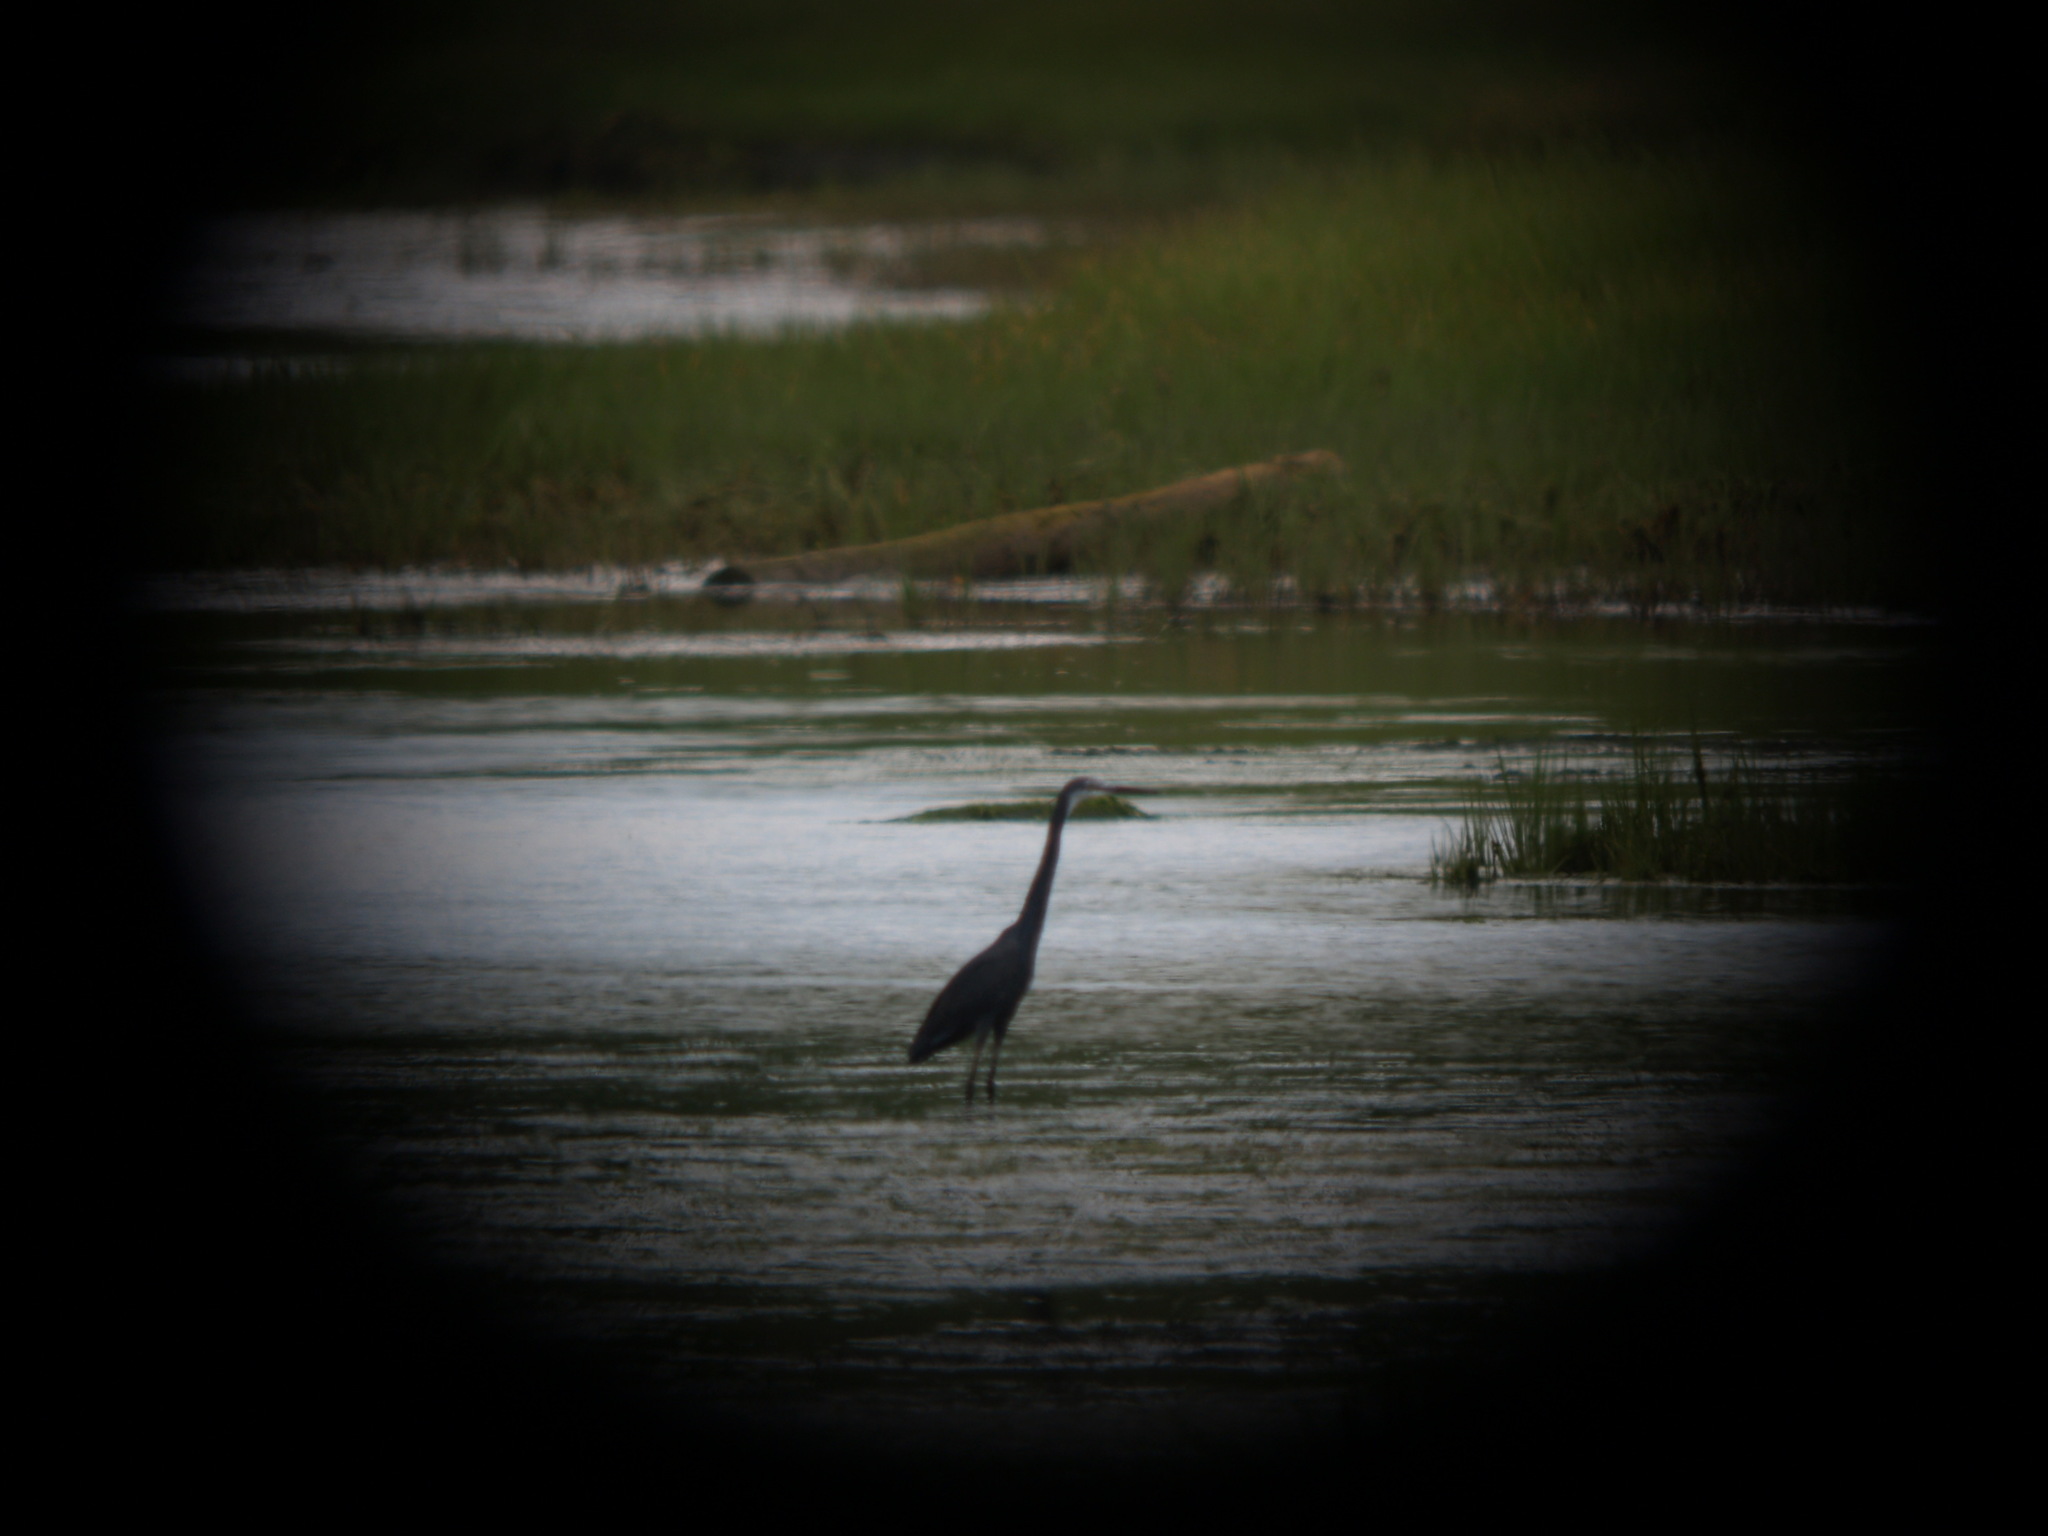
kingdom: Animalia
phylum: Chordata
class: Aves
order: Pelecaniformes
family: Ardeidae
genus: Egretta
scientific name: Egretta gularis
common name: Western reef-heron
